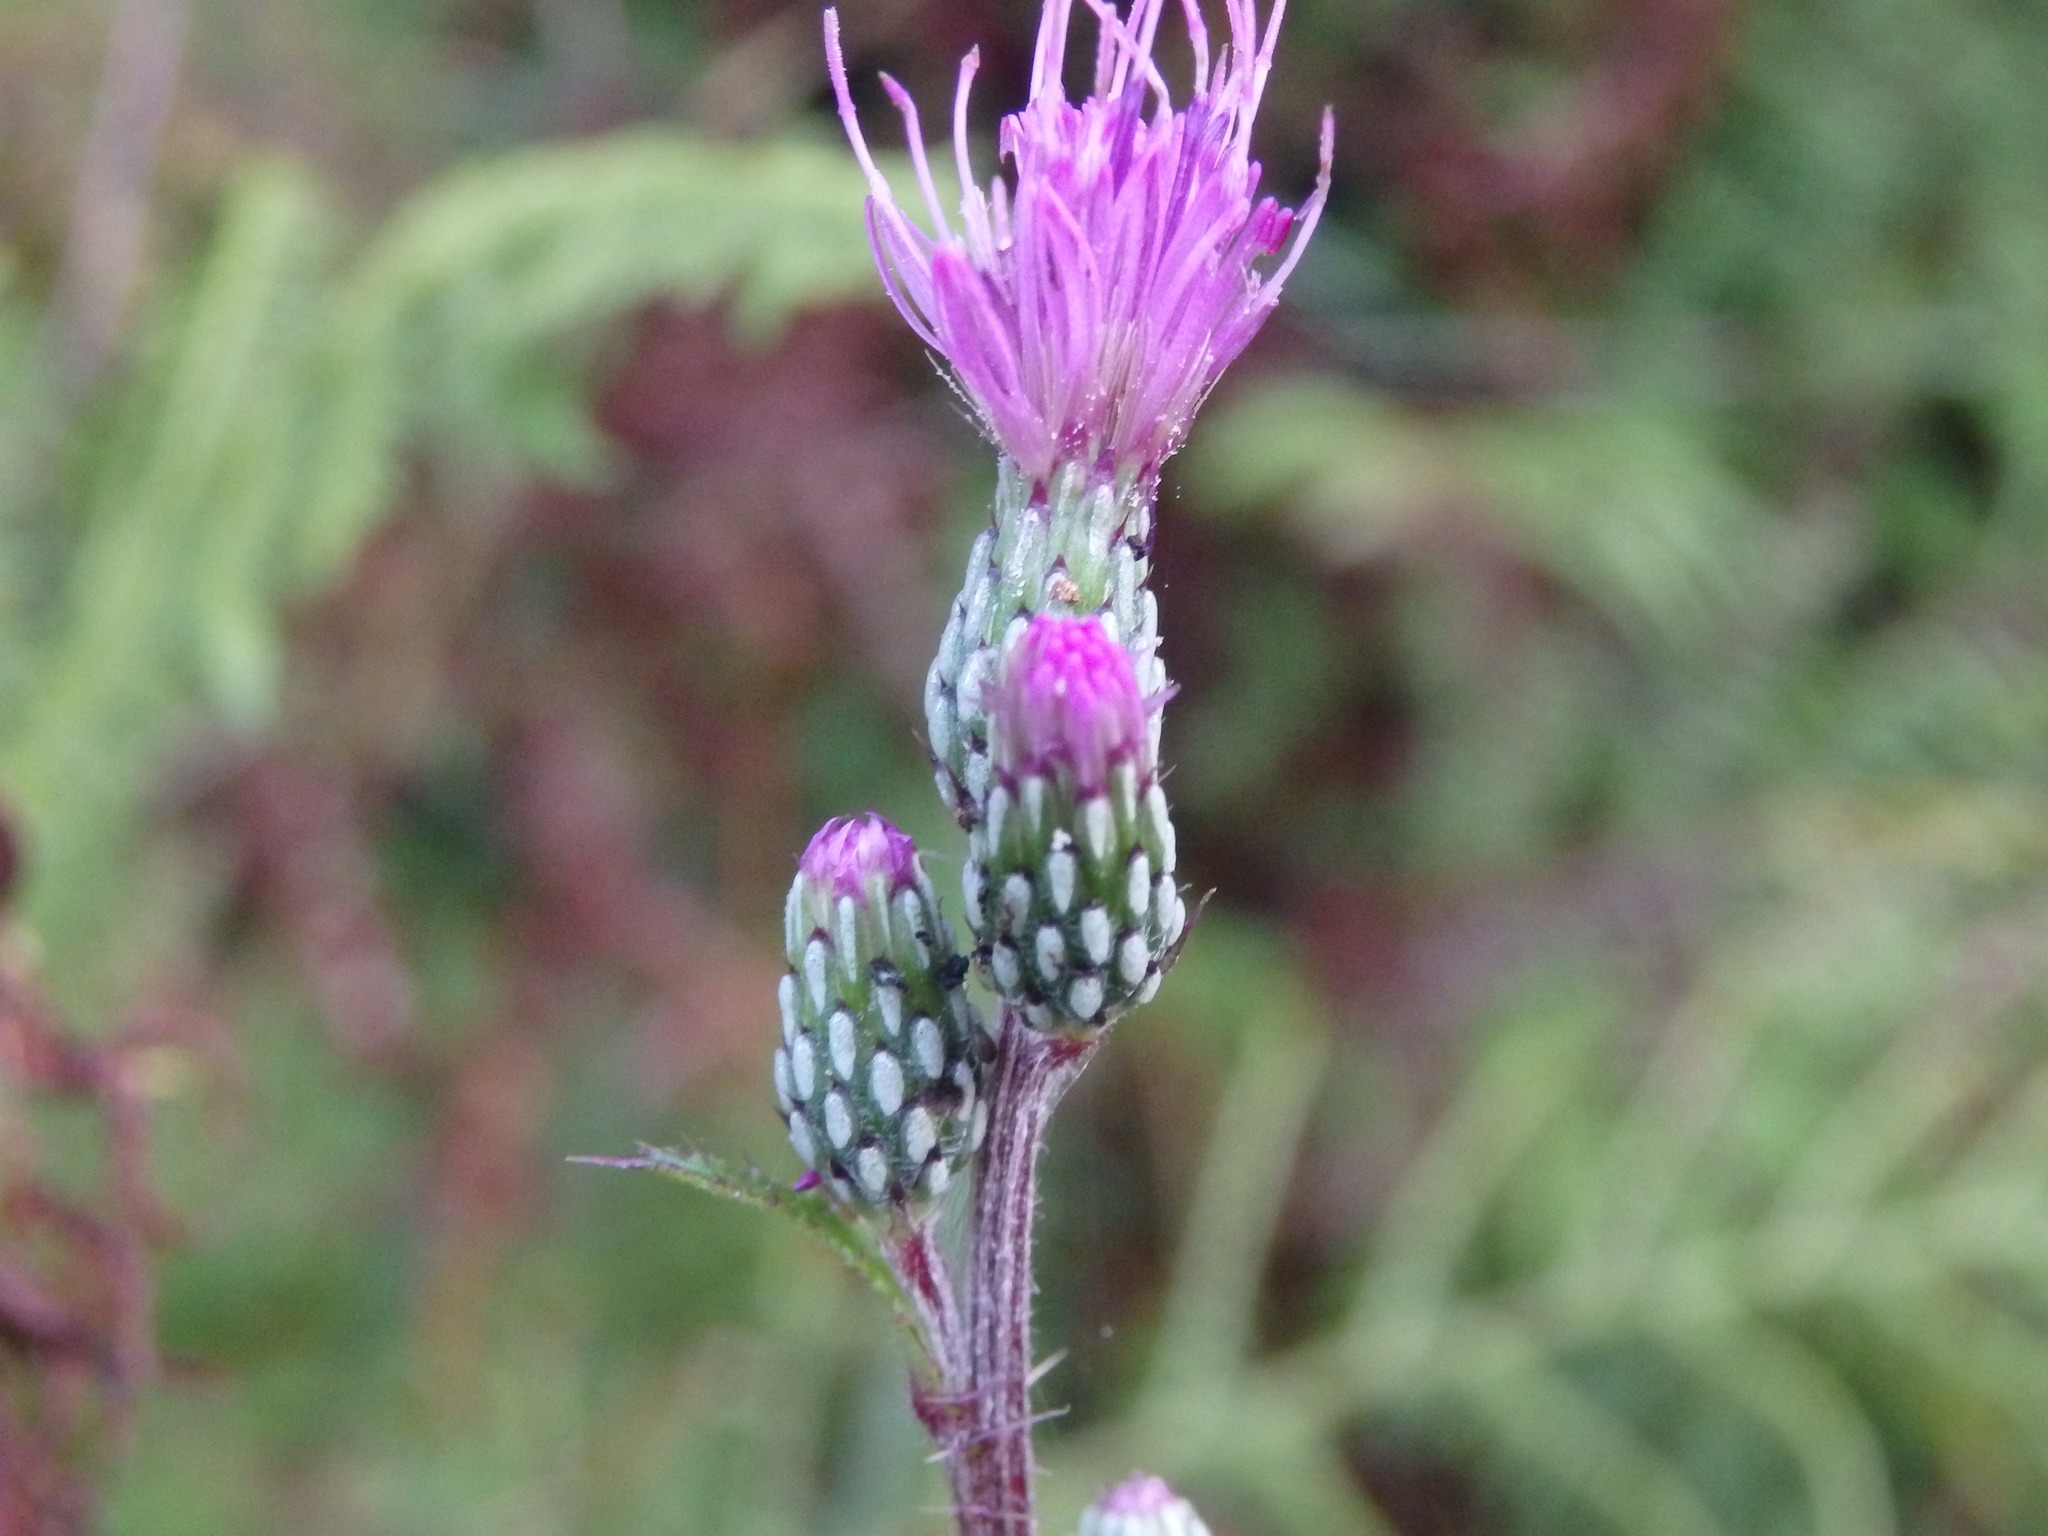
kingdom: Plantae
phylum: Tracheophyta
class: Magnoliopsida
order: Asterales
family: Asteraceae
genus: Cirsium
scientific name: Cirsium palustre
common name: Marsh thistle
